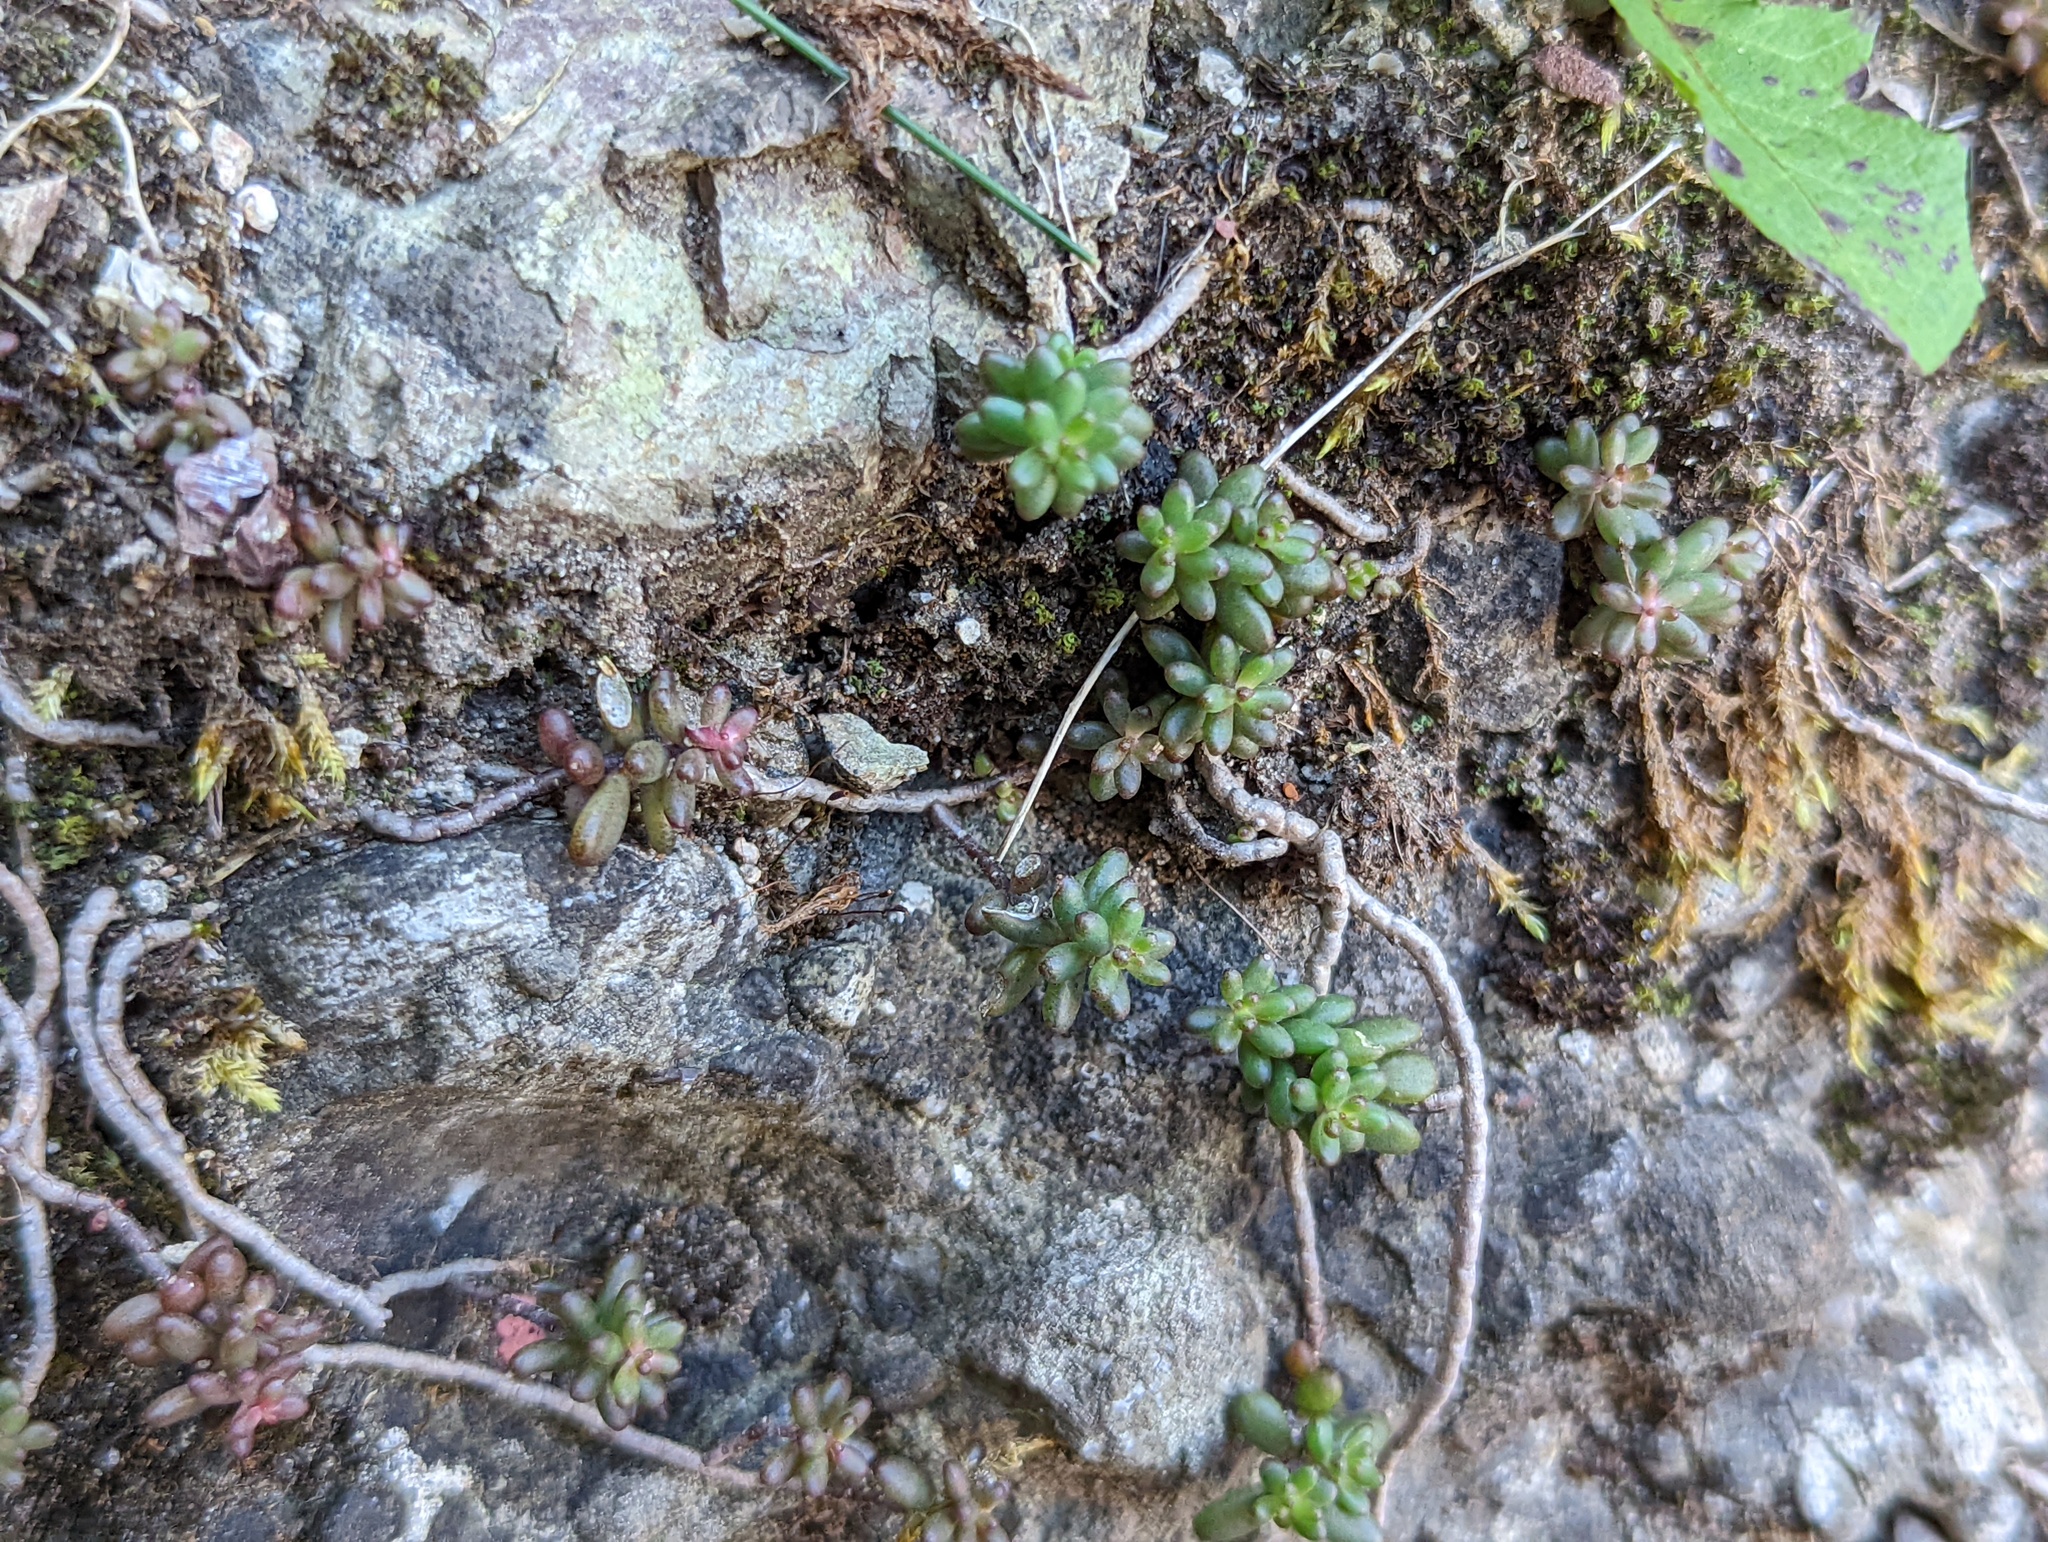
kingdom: Plantae
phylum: Tracheophyta
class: Magnoliopsida
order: Saxifragales
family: Crassulaceae
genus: Sedum
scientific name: Sedum album
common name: White stonecrop
